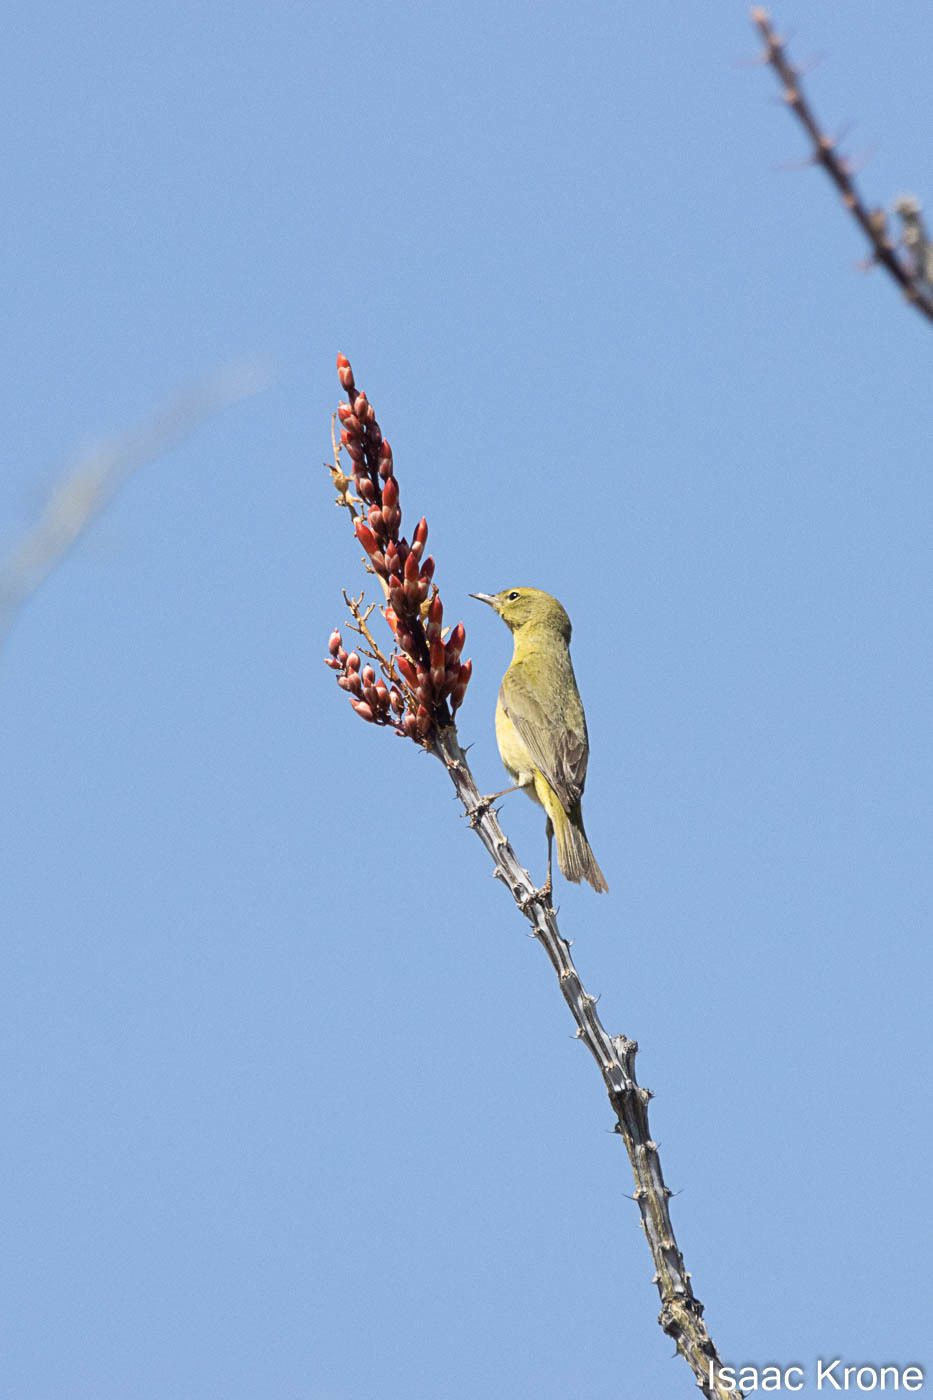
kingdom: Animalia
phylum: Chordata
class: Aves
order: Passeriformes
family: Parulidae
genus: Leiothlypis
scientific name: Leiothlypis celata
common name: Orange-crowned warbler
